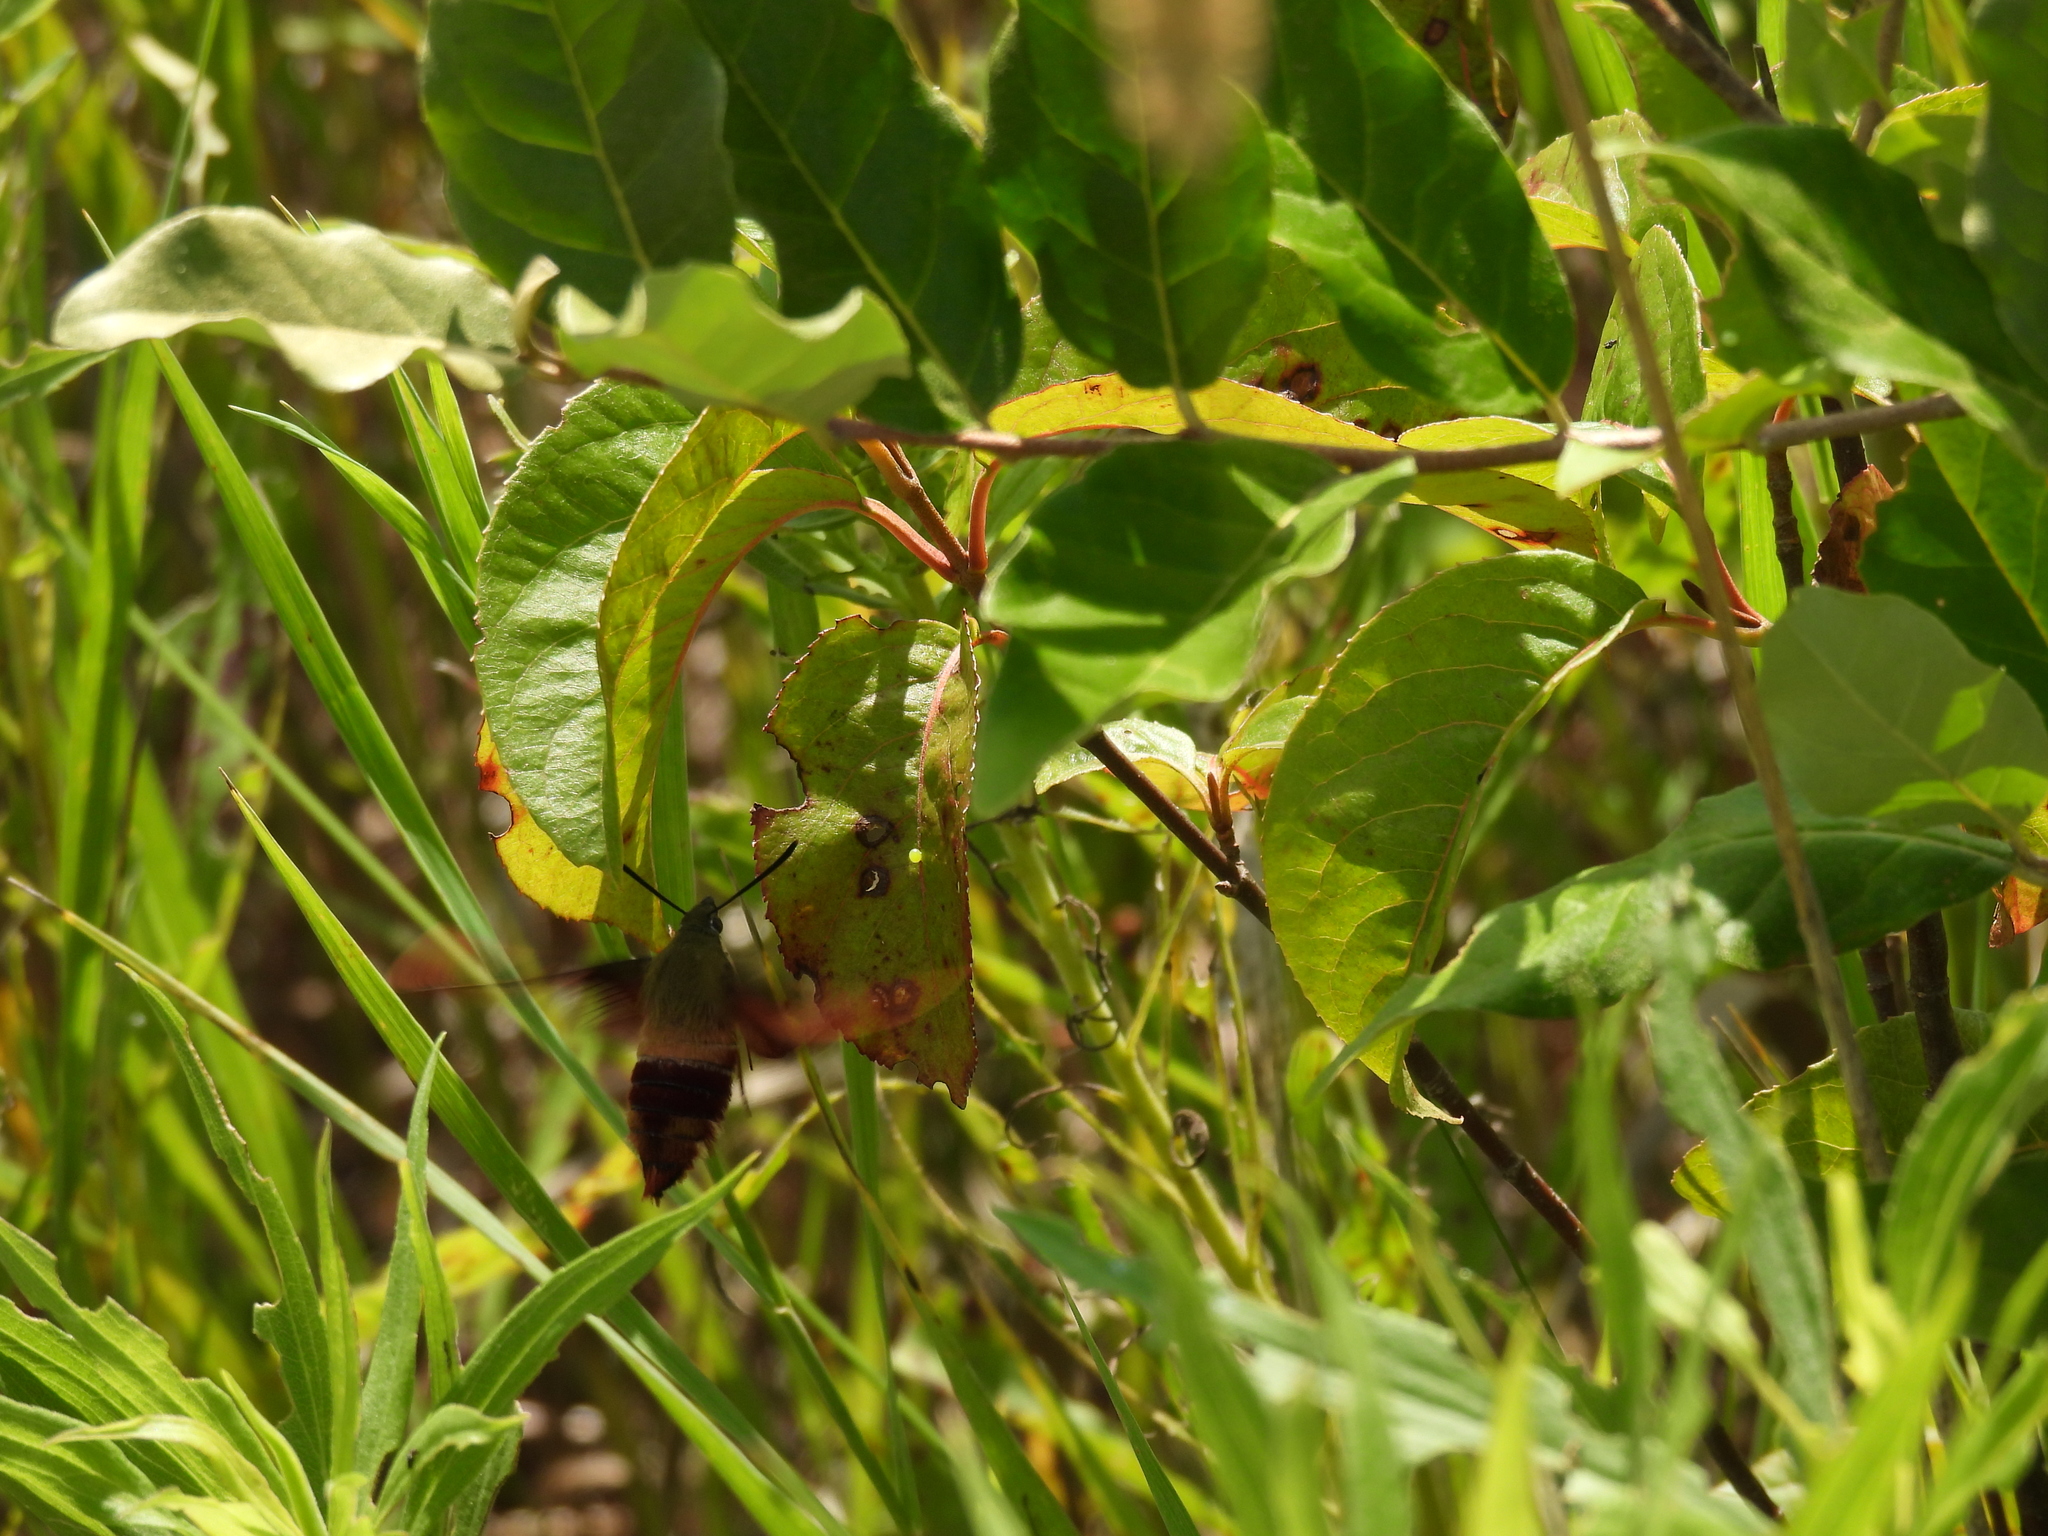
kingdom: Animalia
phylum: Arthropoda
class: Insecta
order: Lepidoptera
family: Sphingidae
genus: Hemaris
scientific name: Hemaris thysbe
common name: Common clear-wing
